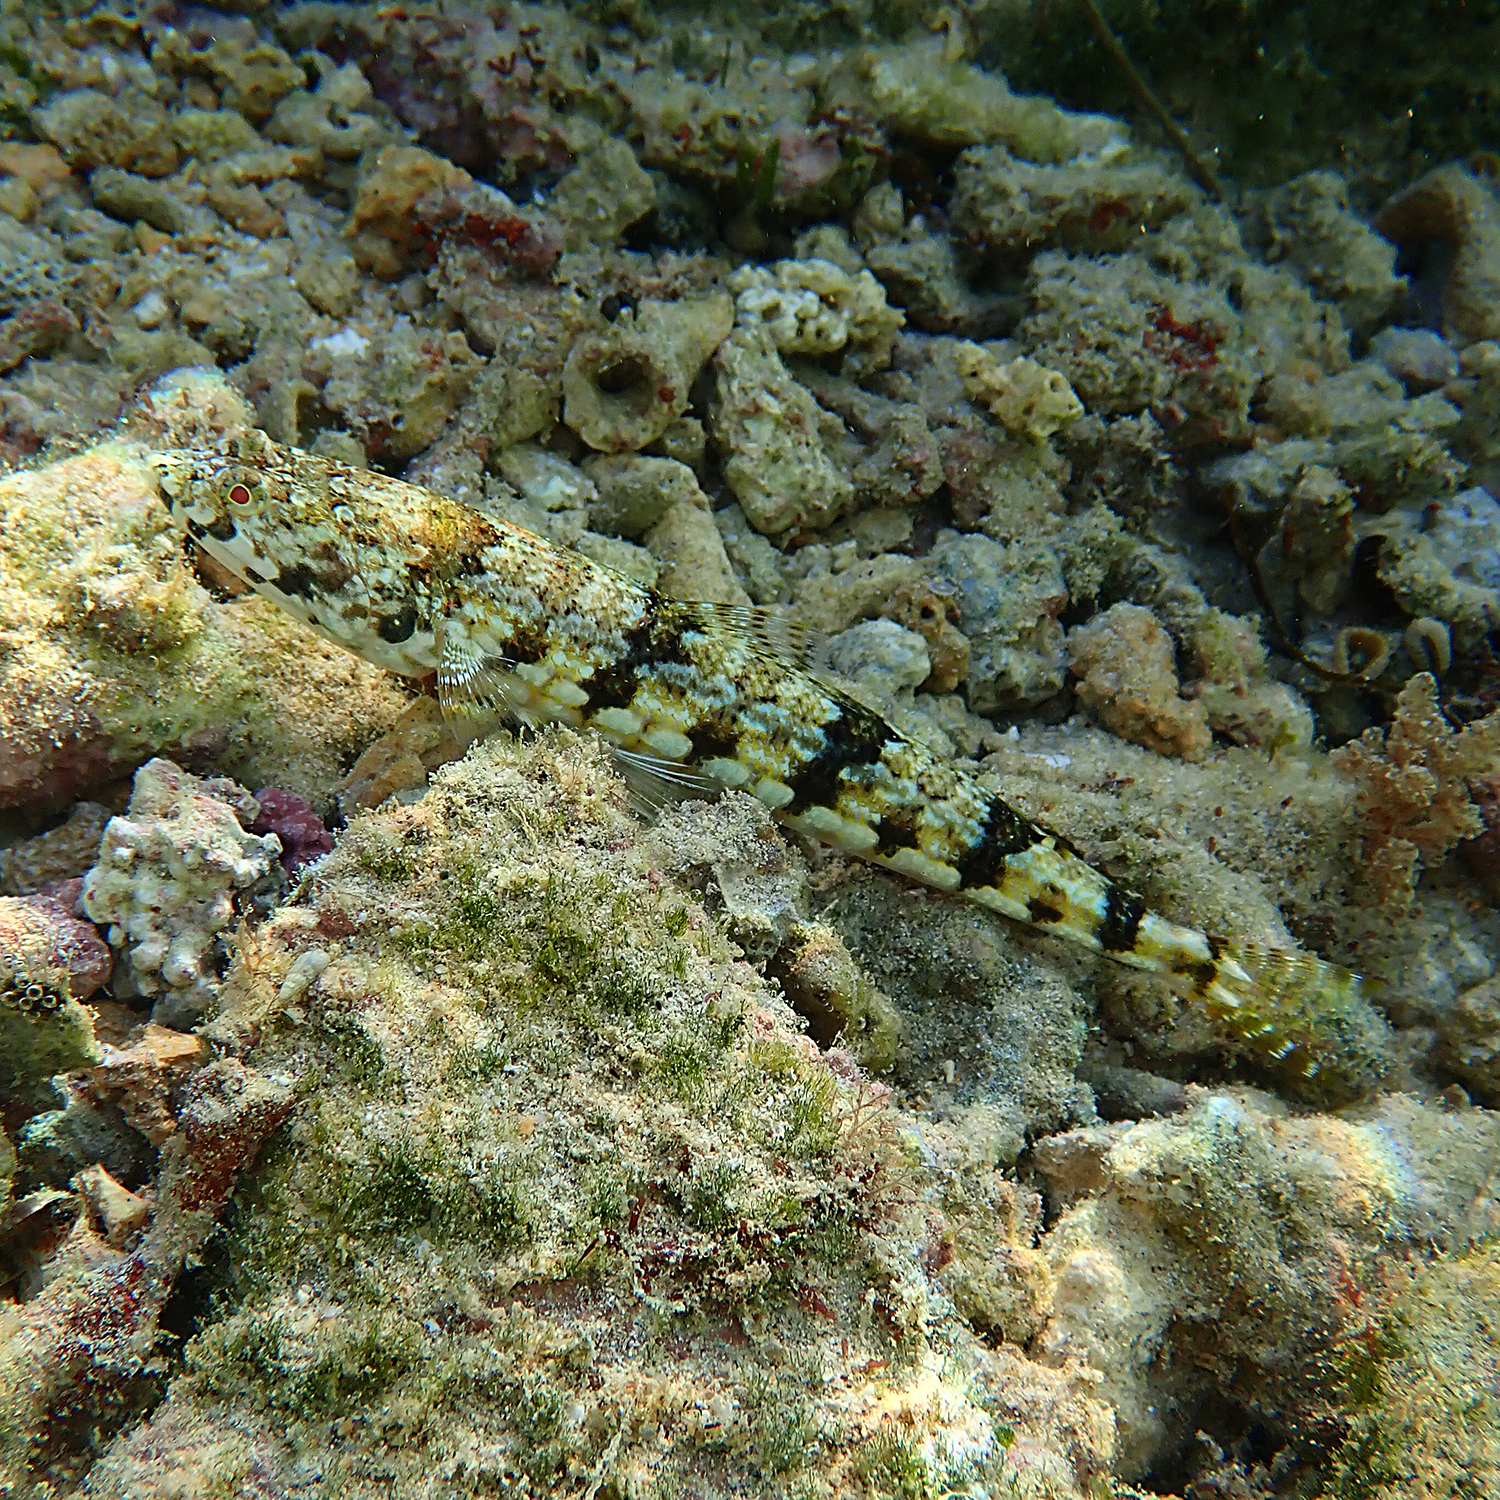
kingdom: Animalia
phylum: Chordata
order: Aulopiformes
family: Synodontidae
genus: Synodus
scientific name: Synodus dermatogenys
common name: Banded lizardfish
